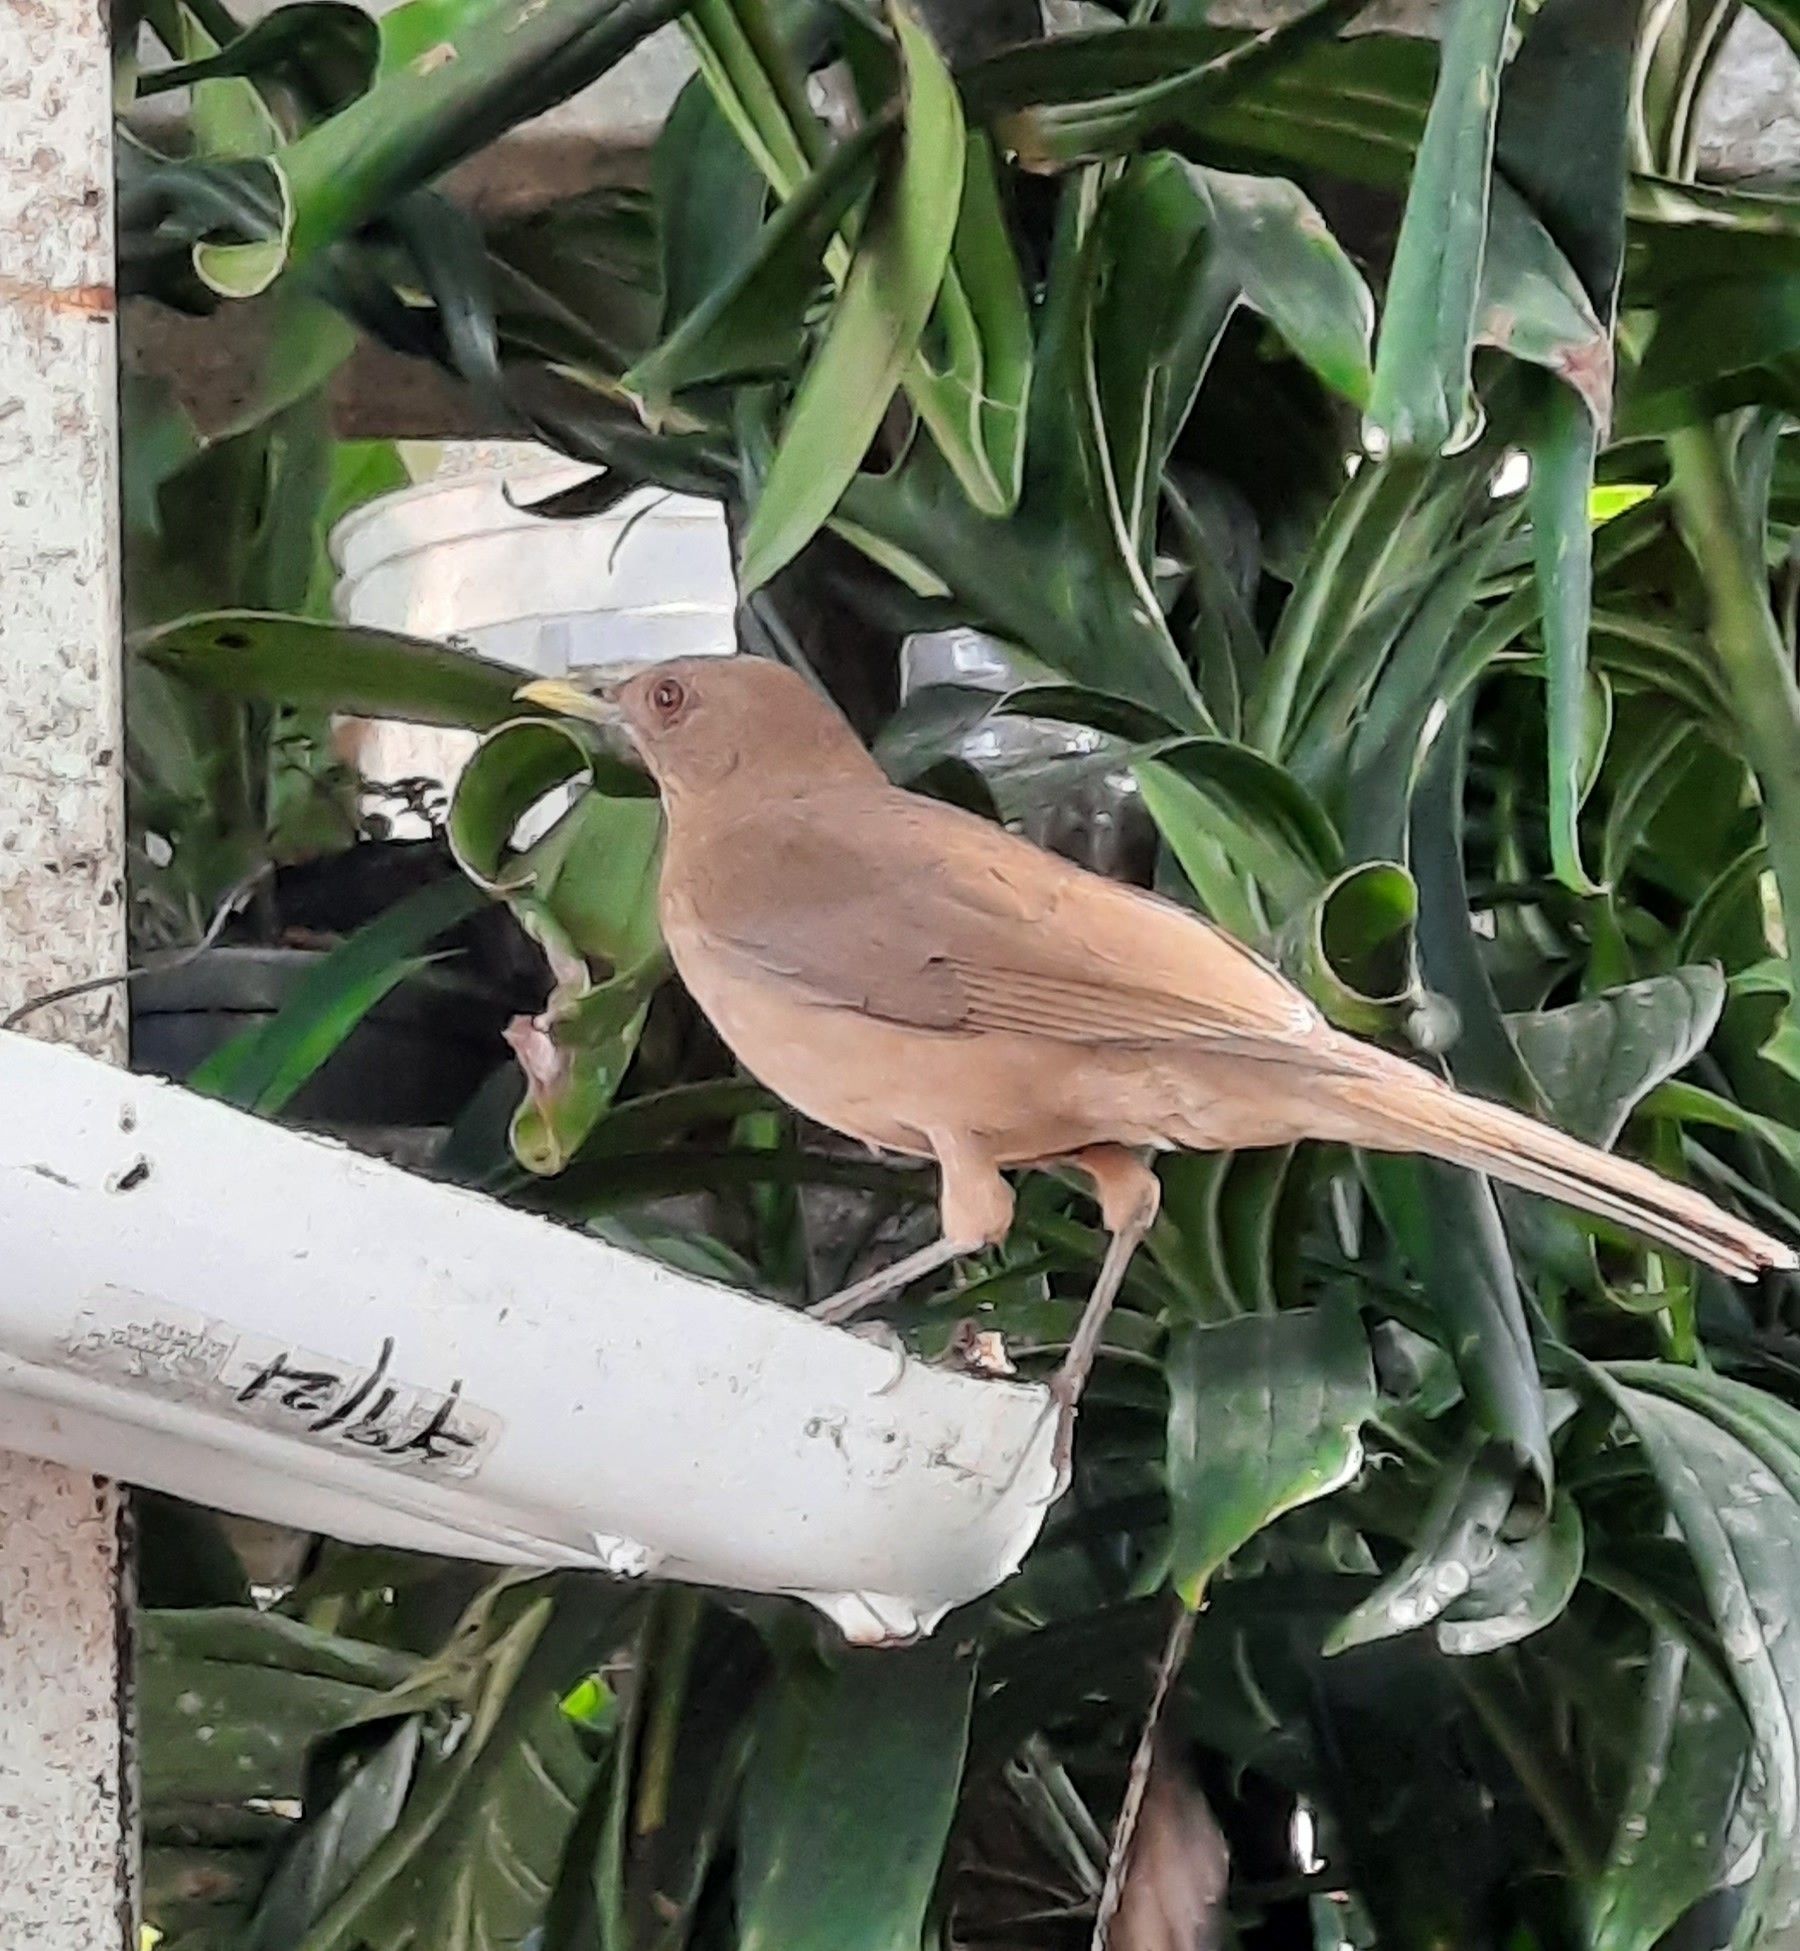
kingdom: Animalia
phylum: Chordata
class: Aves
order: Passeriformes
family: Turdidae
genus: Turdus
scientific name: Turdus grayi
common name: Clay-colored thrush
